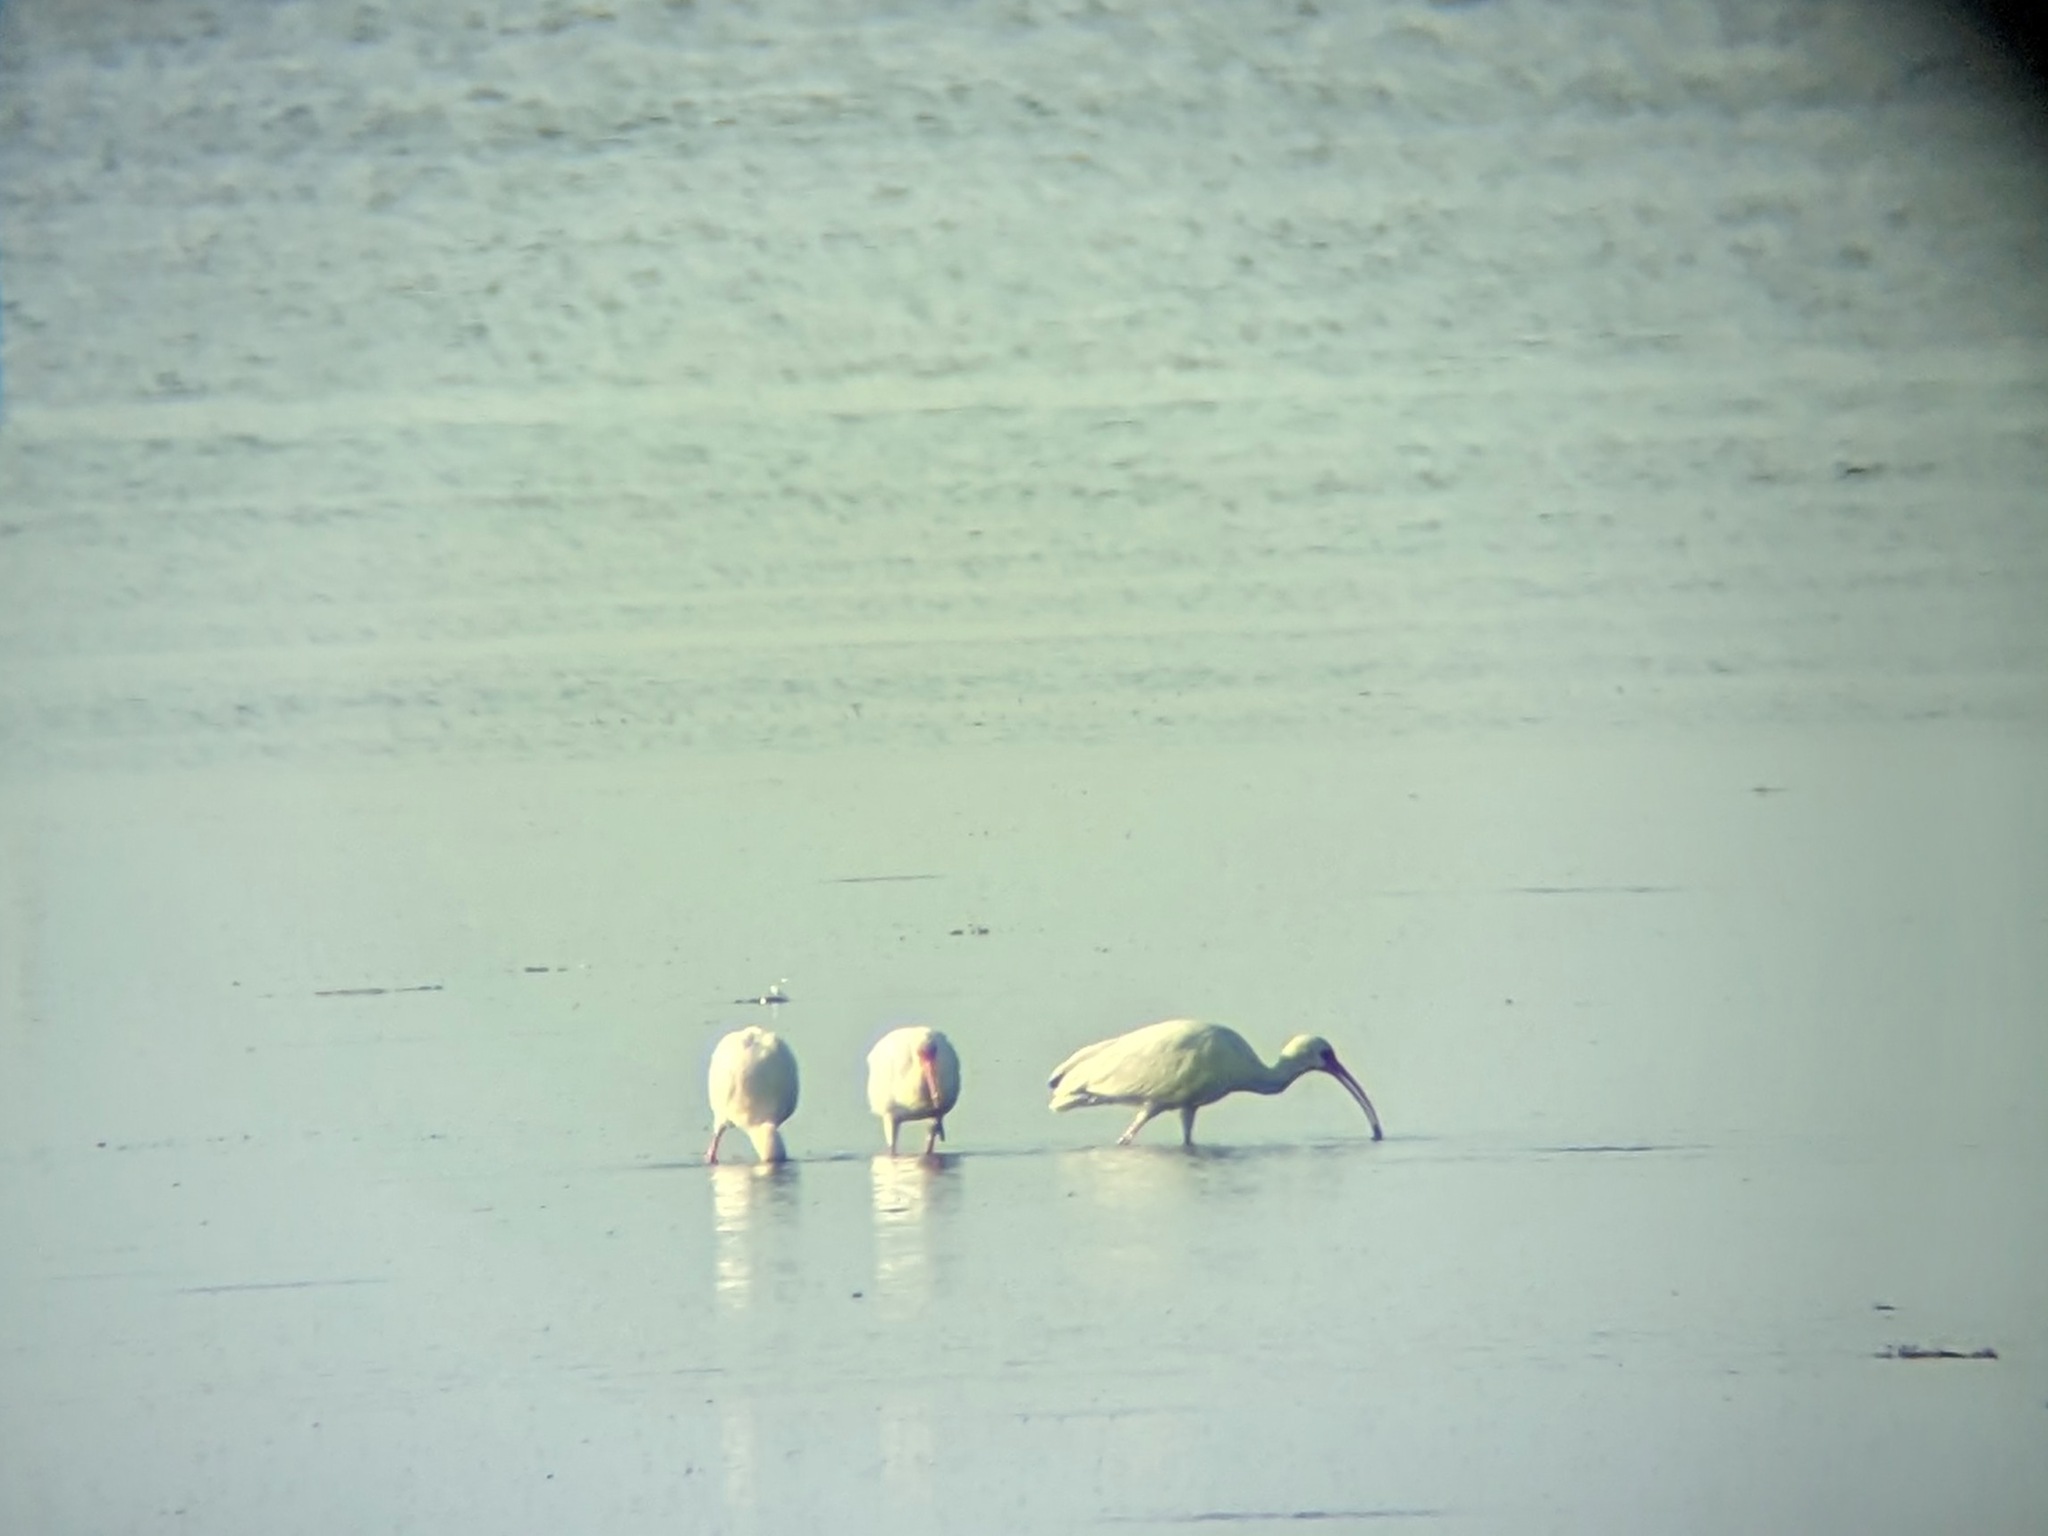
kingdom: Animalia
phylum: Chordata
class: Aves
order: Pelecaniformes
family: Threskiornithidae
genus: Eudocimus
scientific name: Eudocimus albus
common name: White ibis
